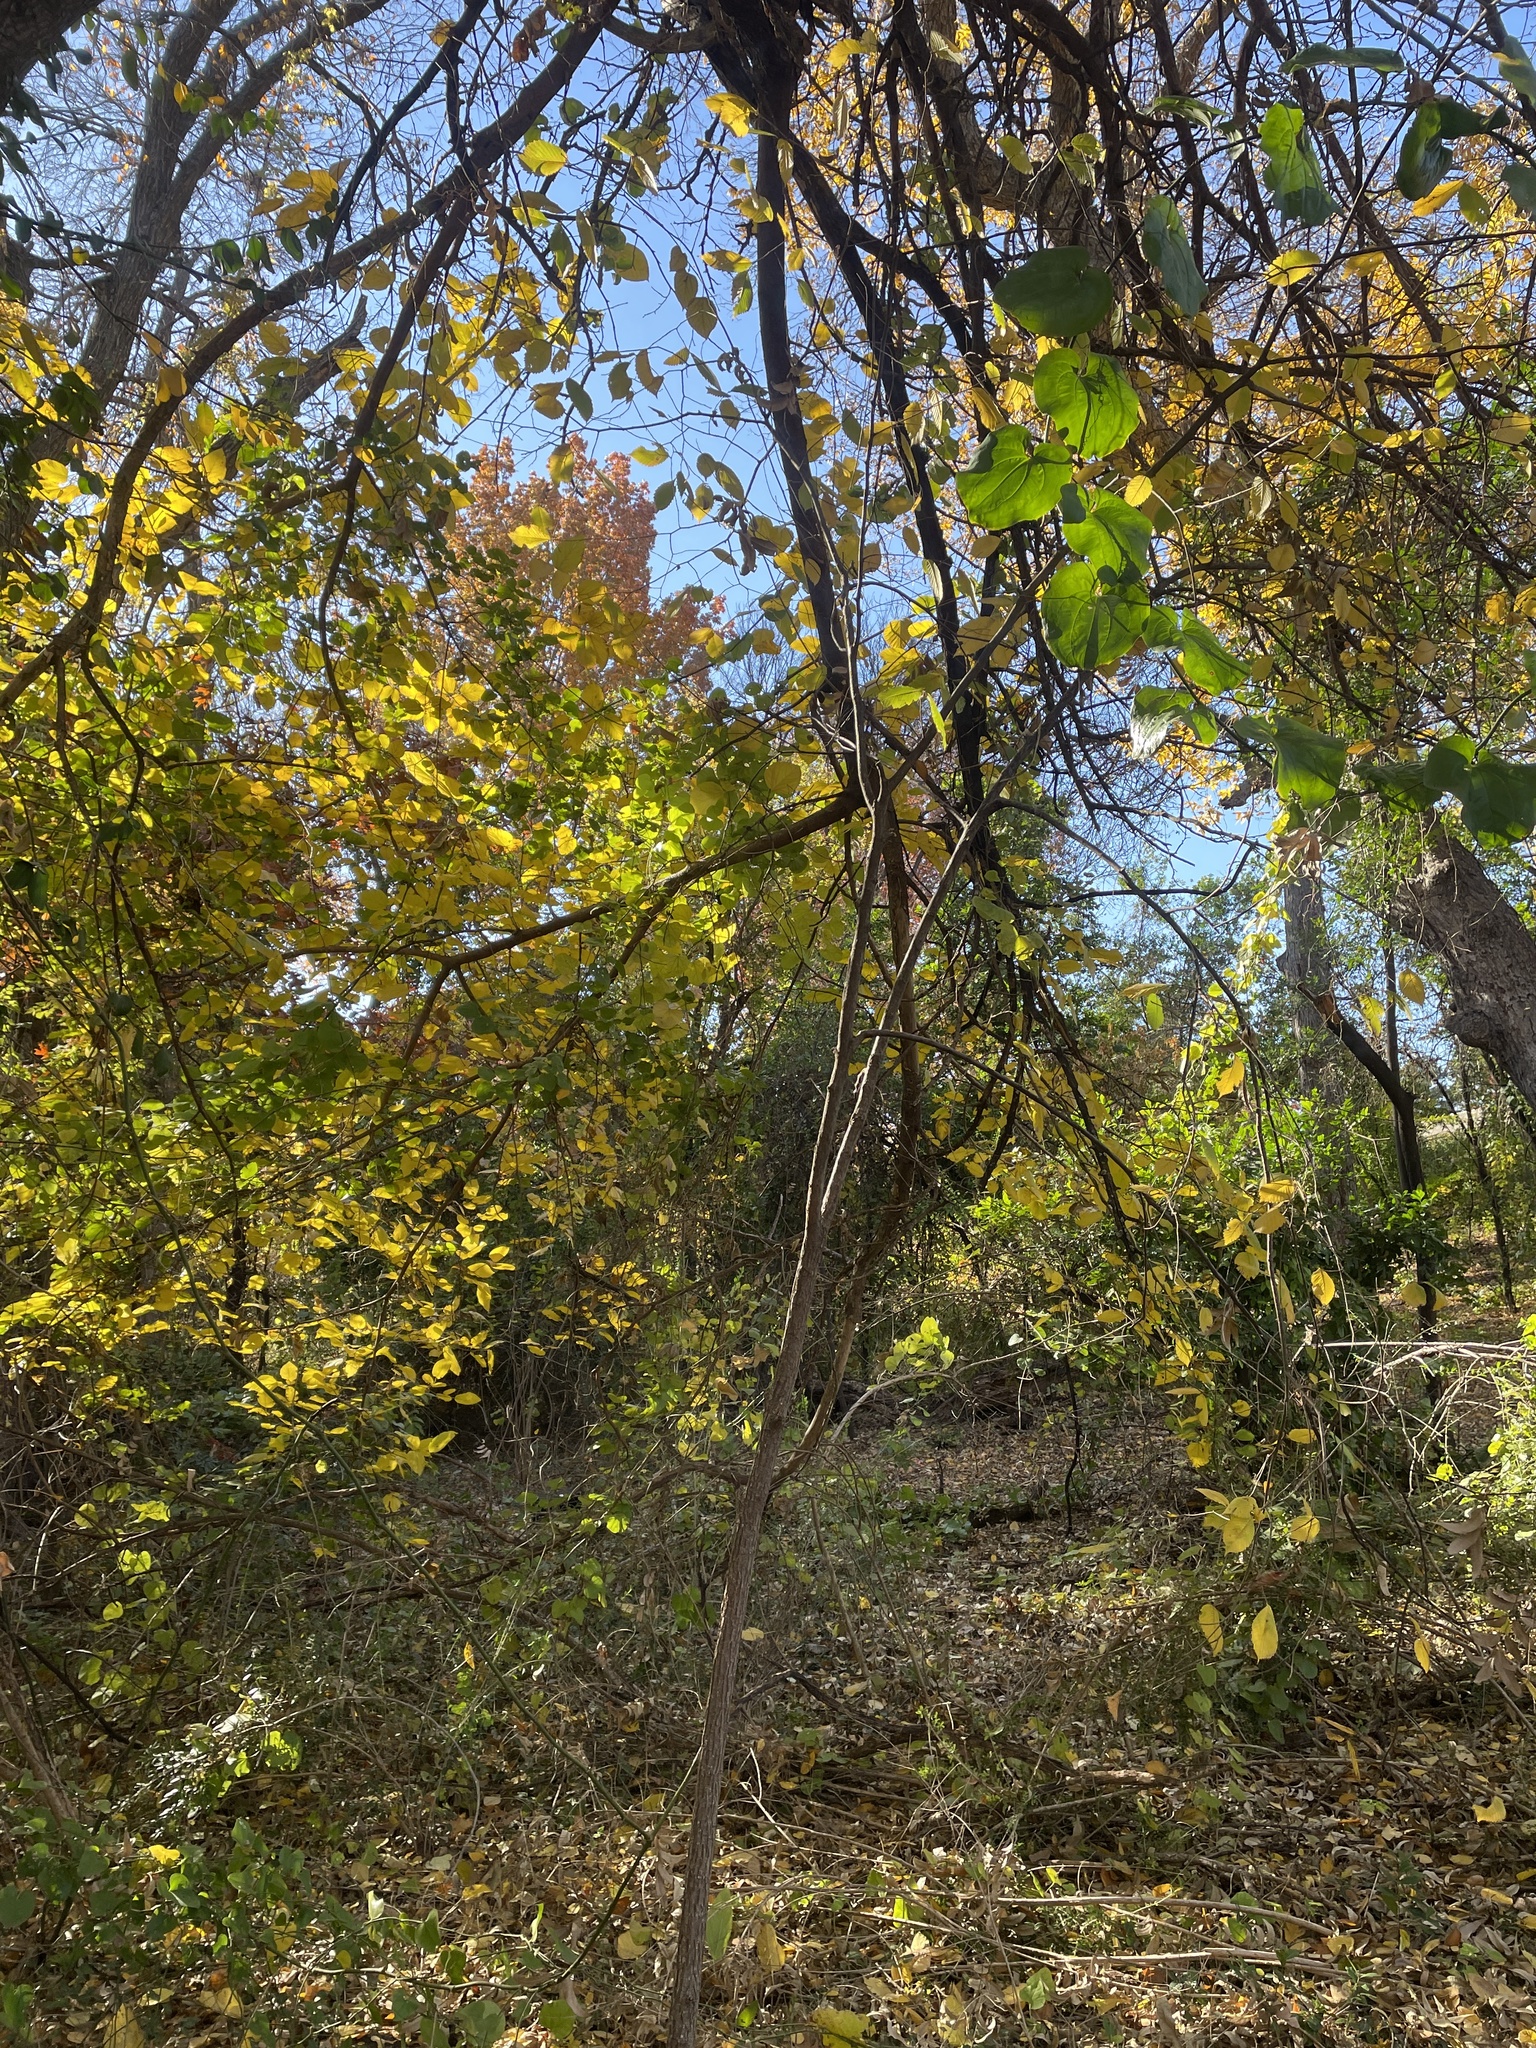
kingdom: Plantae
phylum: Tracheophyta
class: Magnoliopsida
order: Rosales
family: Ulmaceae
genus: Ulmus
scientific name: Ulmus americana
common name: American elm
